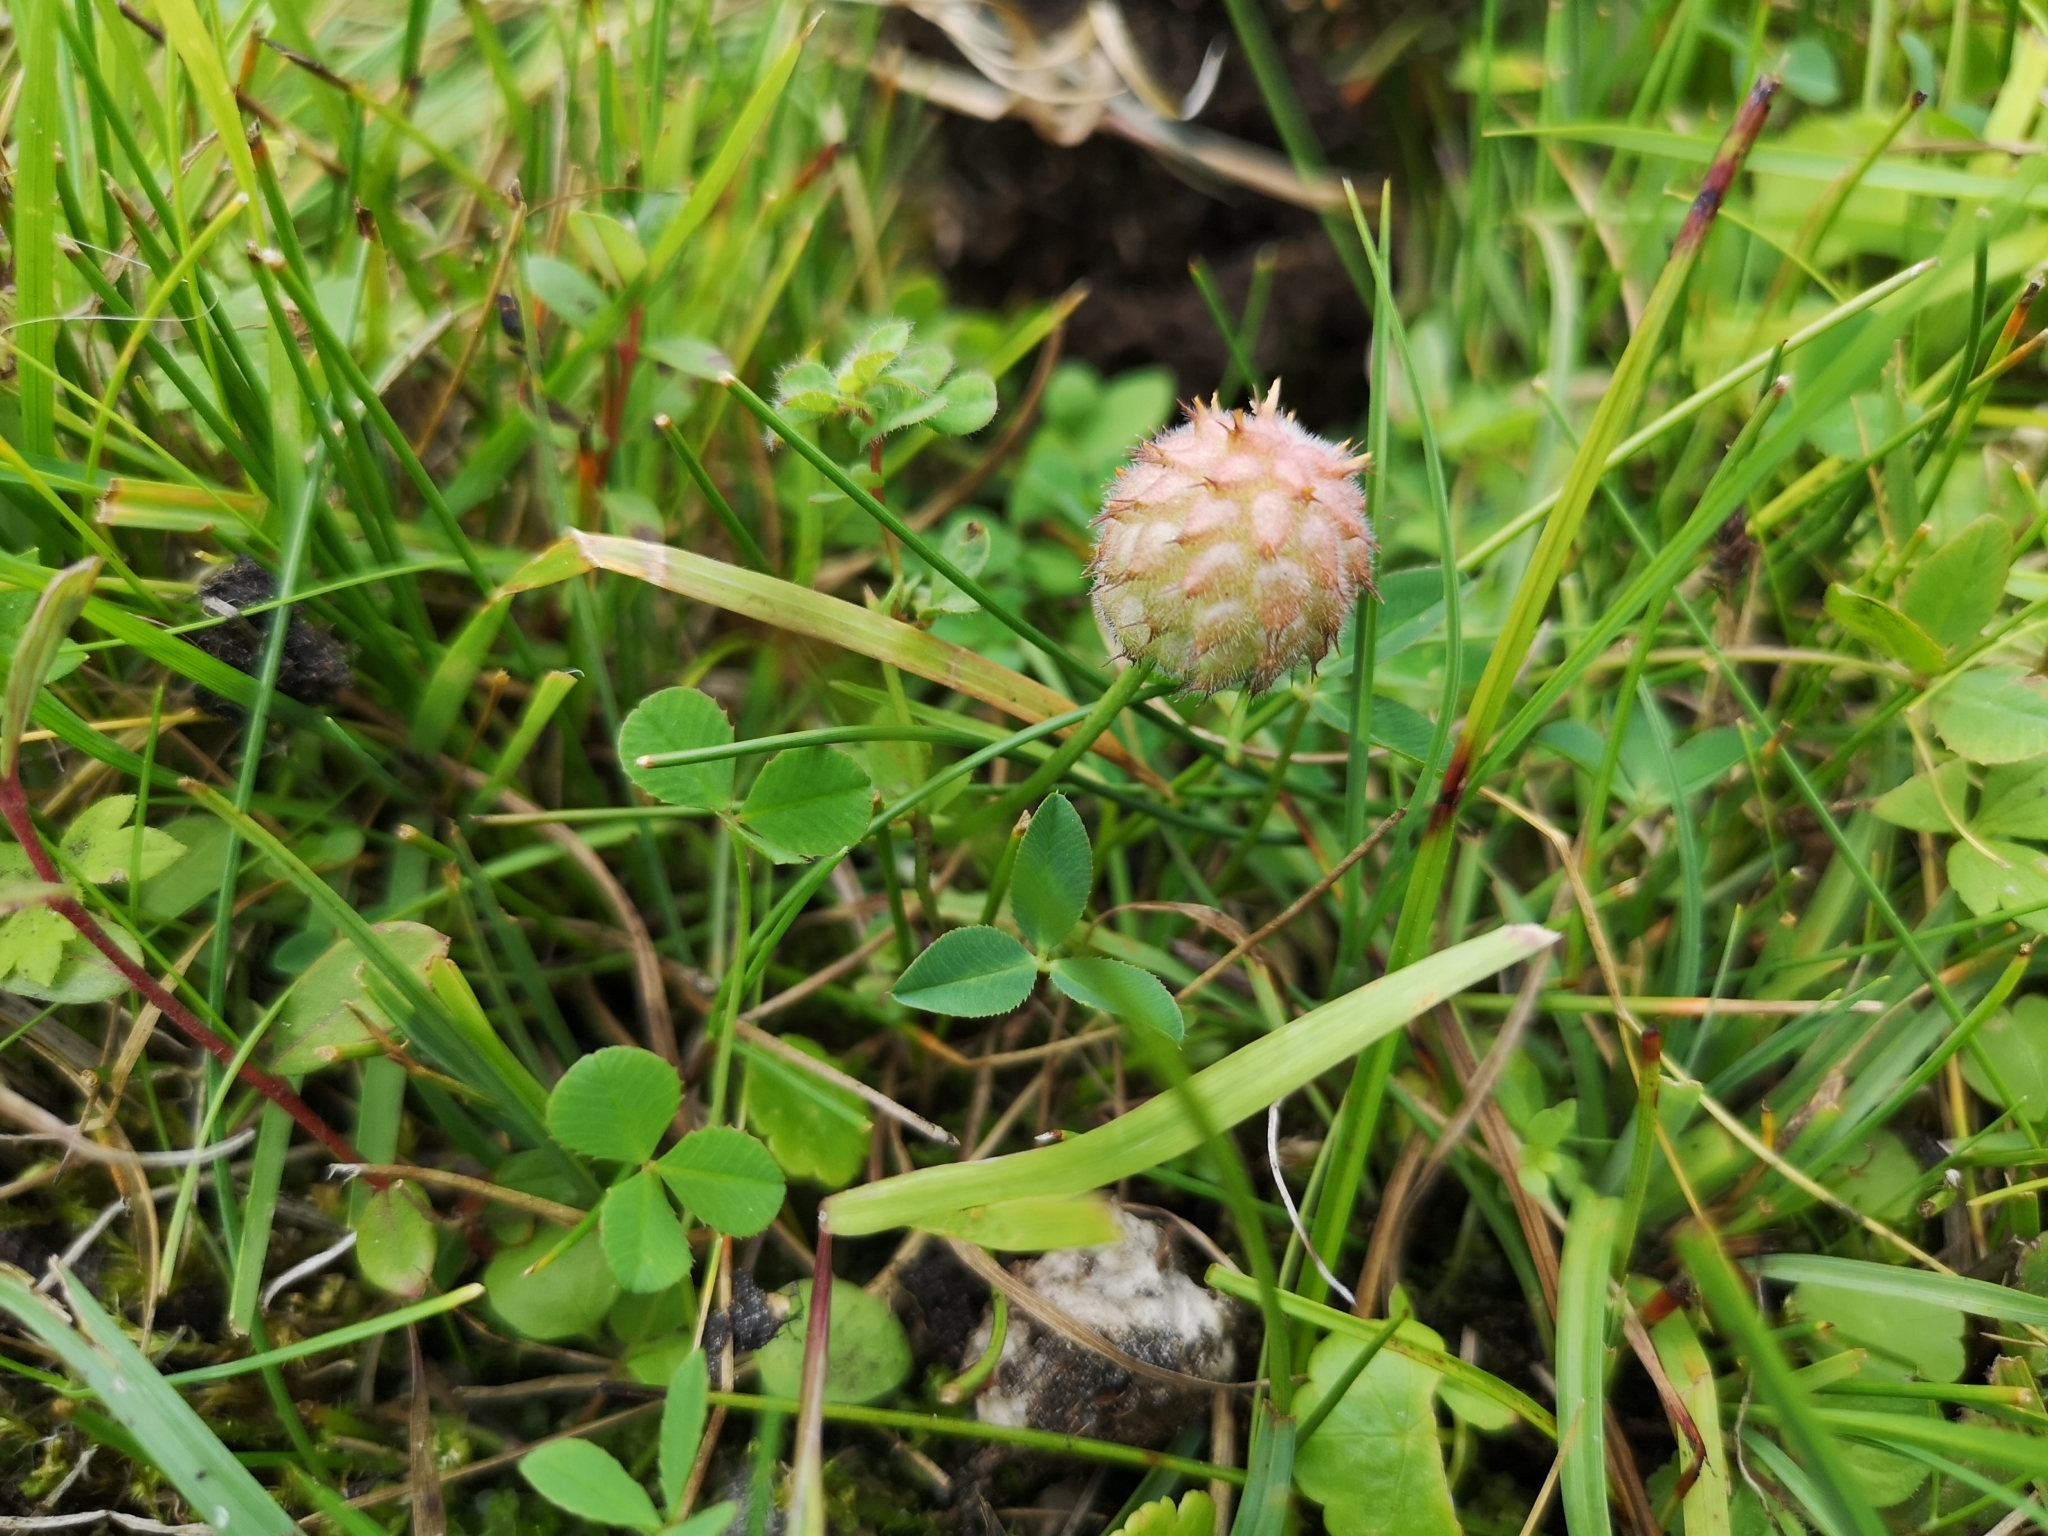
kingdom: Plantae
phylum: Tracheophyta
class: Magnoliopsida
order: Fabales
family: Fabaceae
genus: Trifolium
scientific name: Trifolium fragiferum
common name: Strawberry clover
